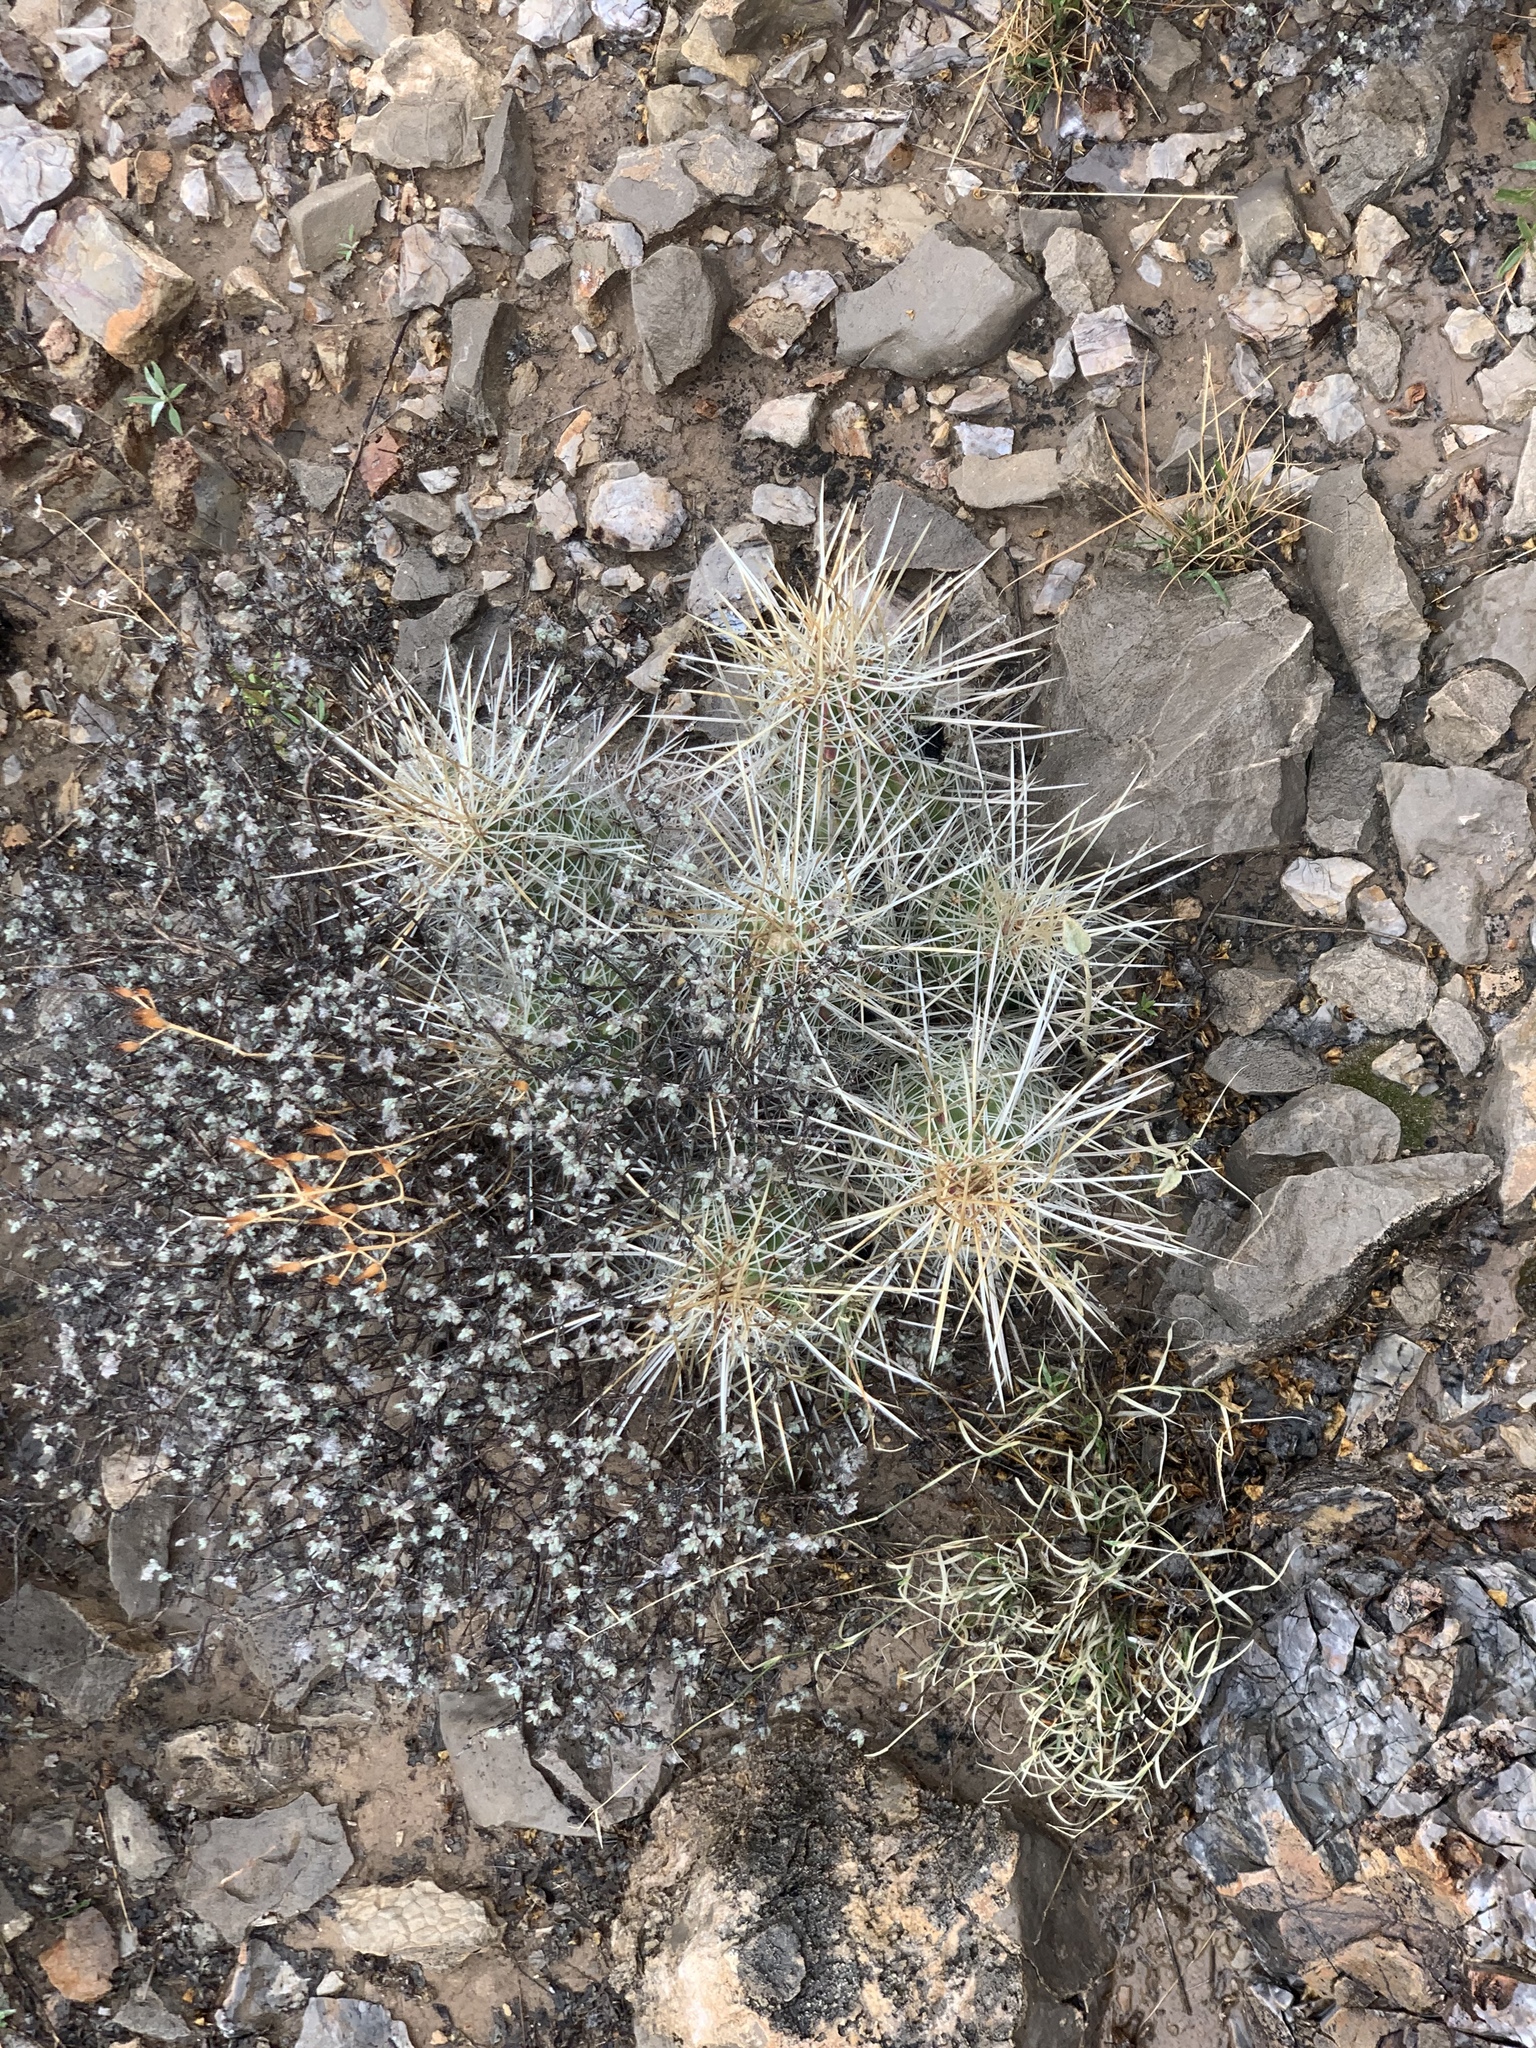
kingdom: Plantae
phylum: Tracheophyta
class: Magnoliopsida
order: Caryophyllales
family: Cactaceae
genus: Echinocereus
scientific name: Echinocereus stramineus
